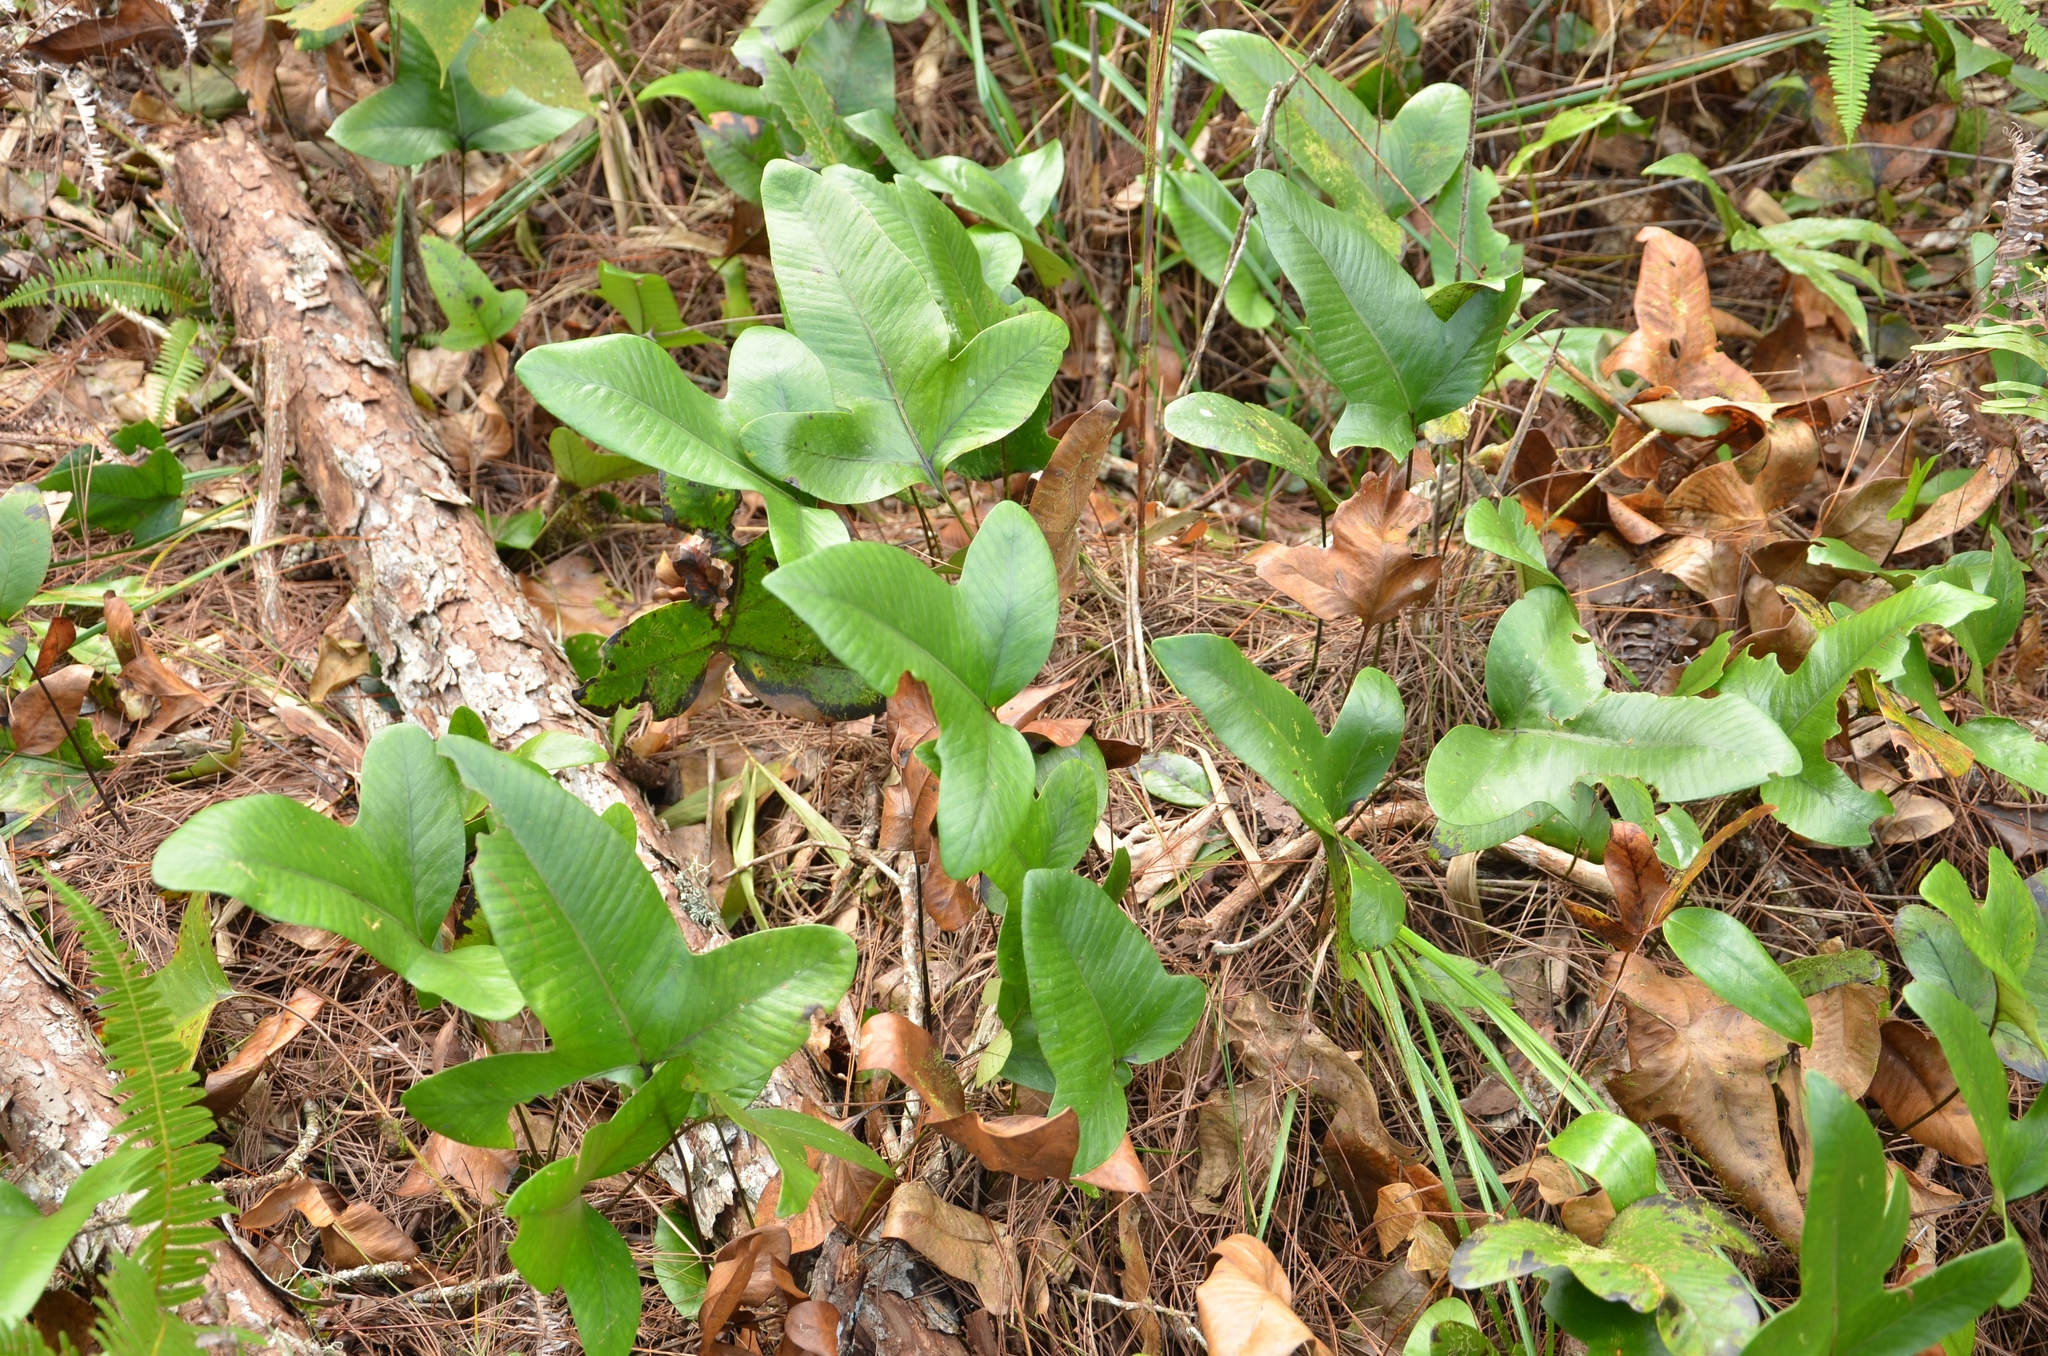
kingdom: Plantae
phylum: Tracheophyta
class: Polypodiopsida
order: Polypodiales
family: Polypodiaceae
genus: Selliguea
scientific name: Selliguea triloba
